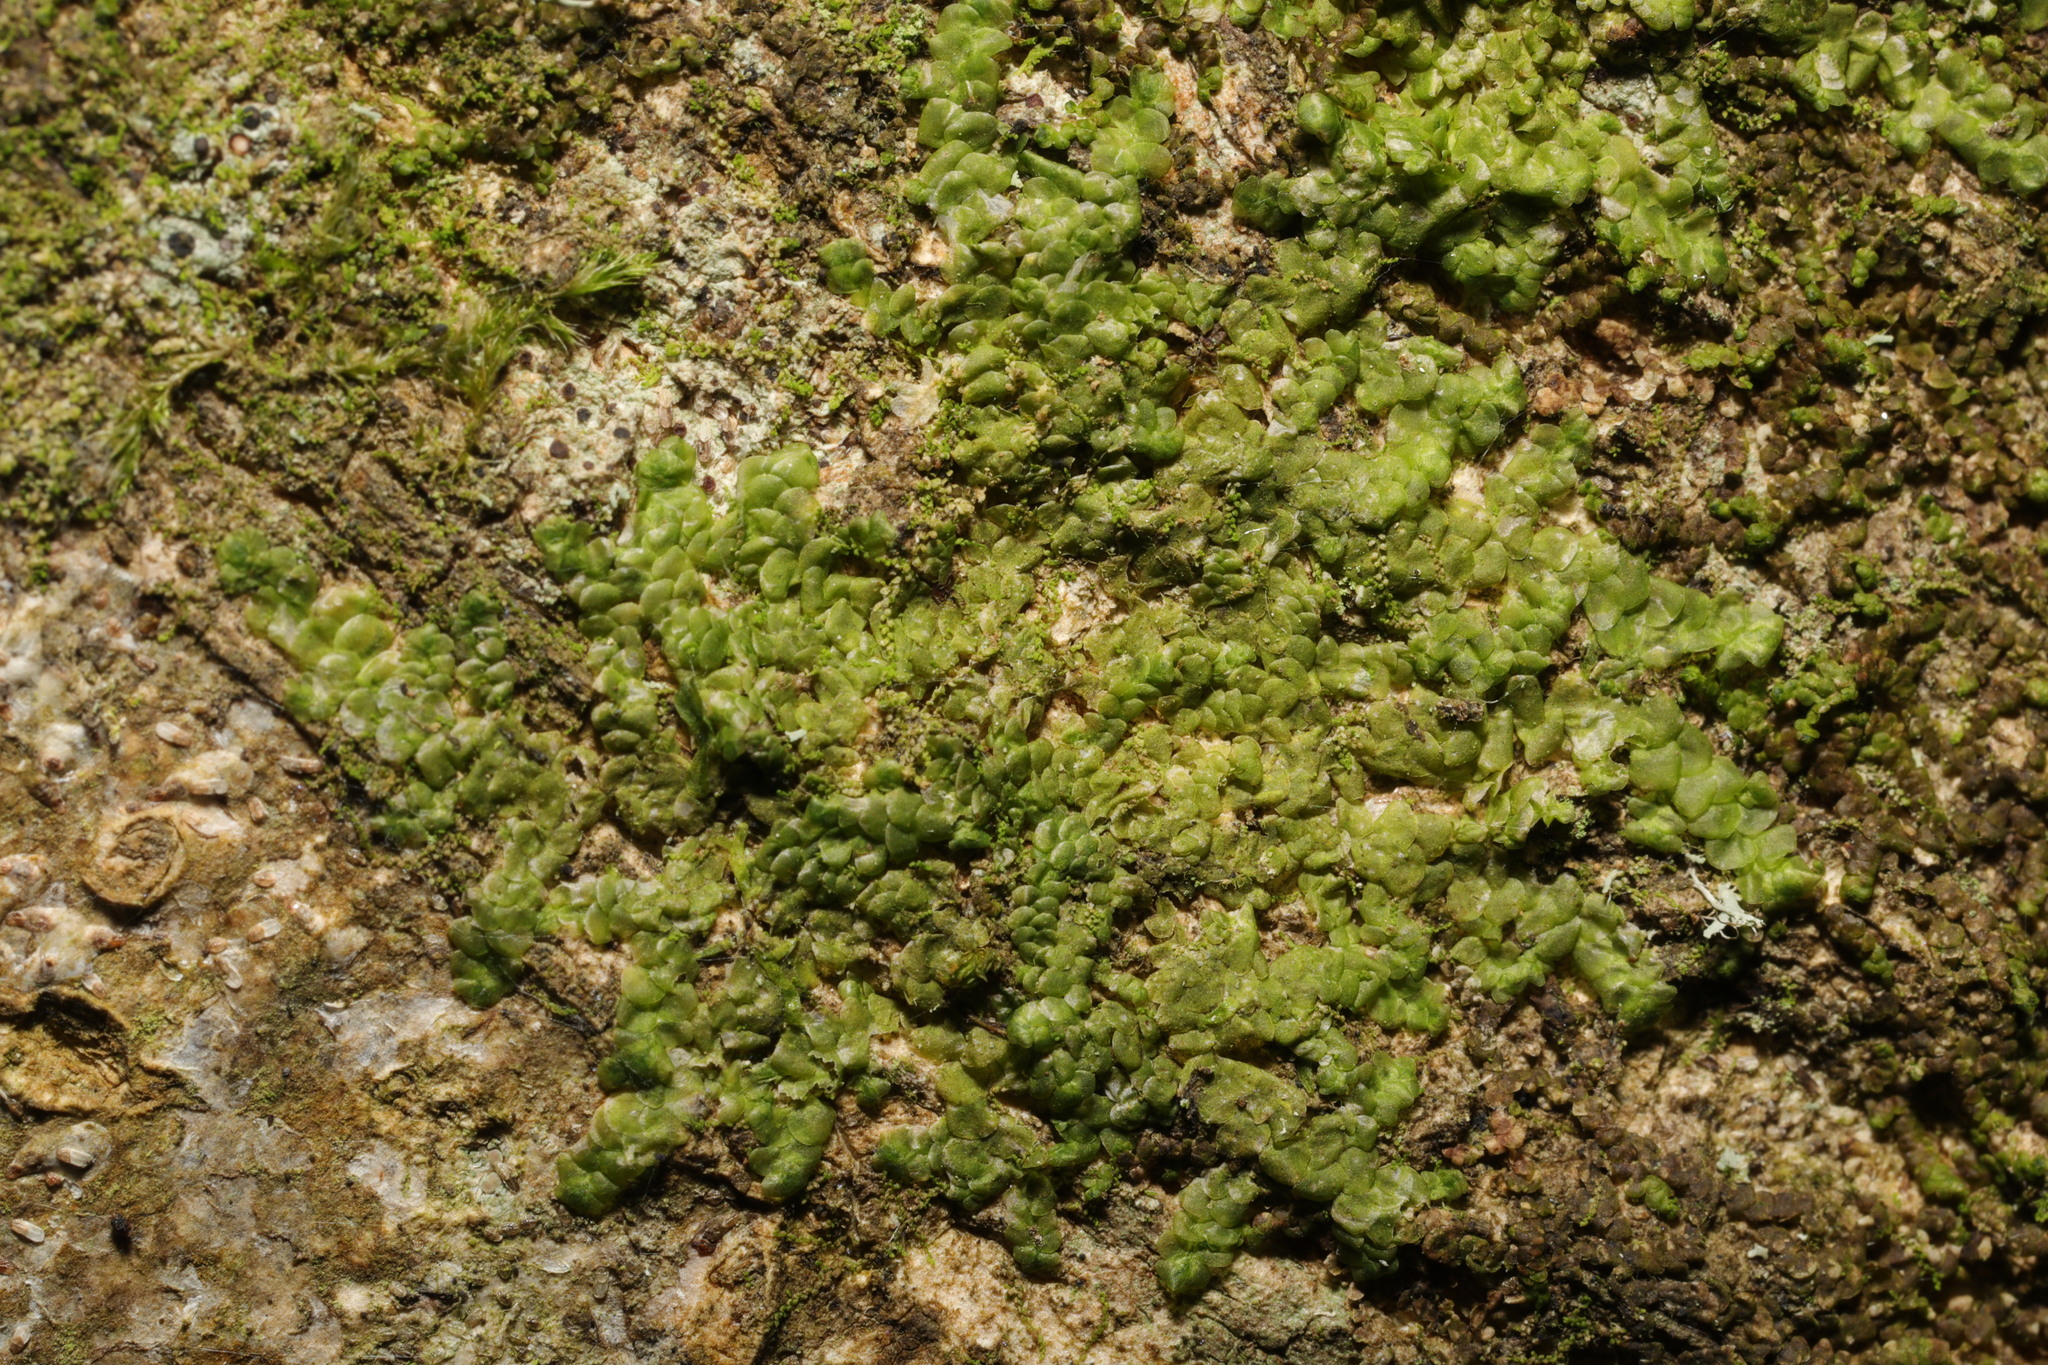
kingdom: Plantae
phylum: Marchantiophyta
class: Jungermanniopsida
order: Porellales
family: Radulaceae
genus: Radula
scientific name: Radula complanata
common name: Flat-leaved scalewort
